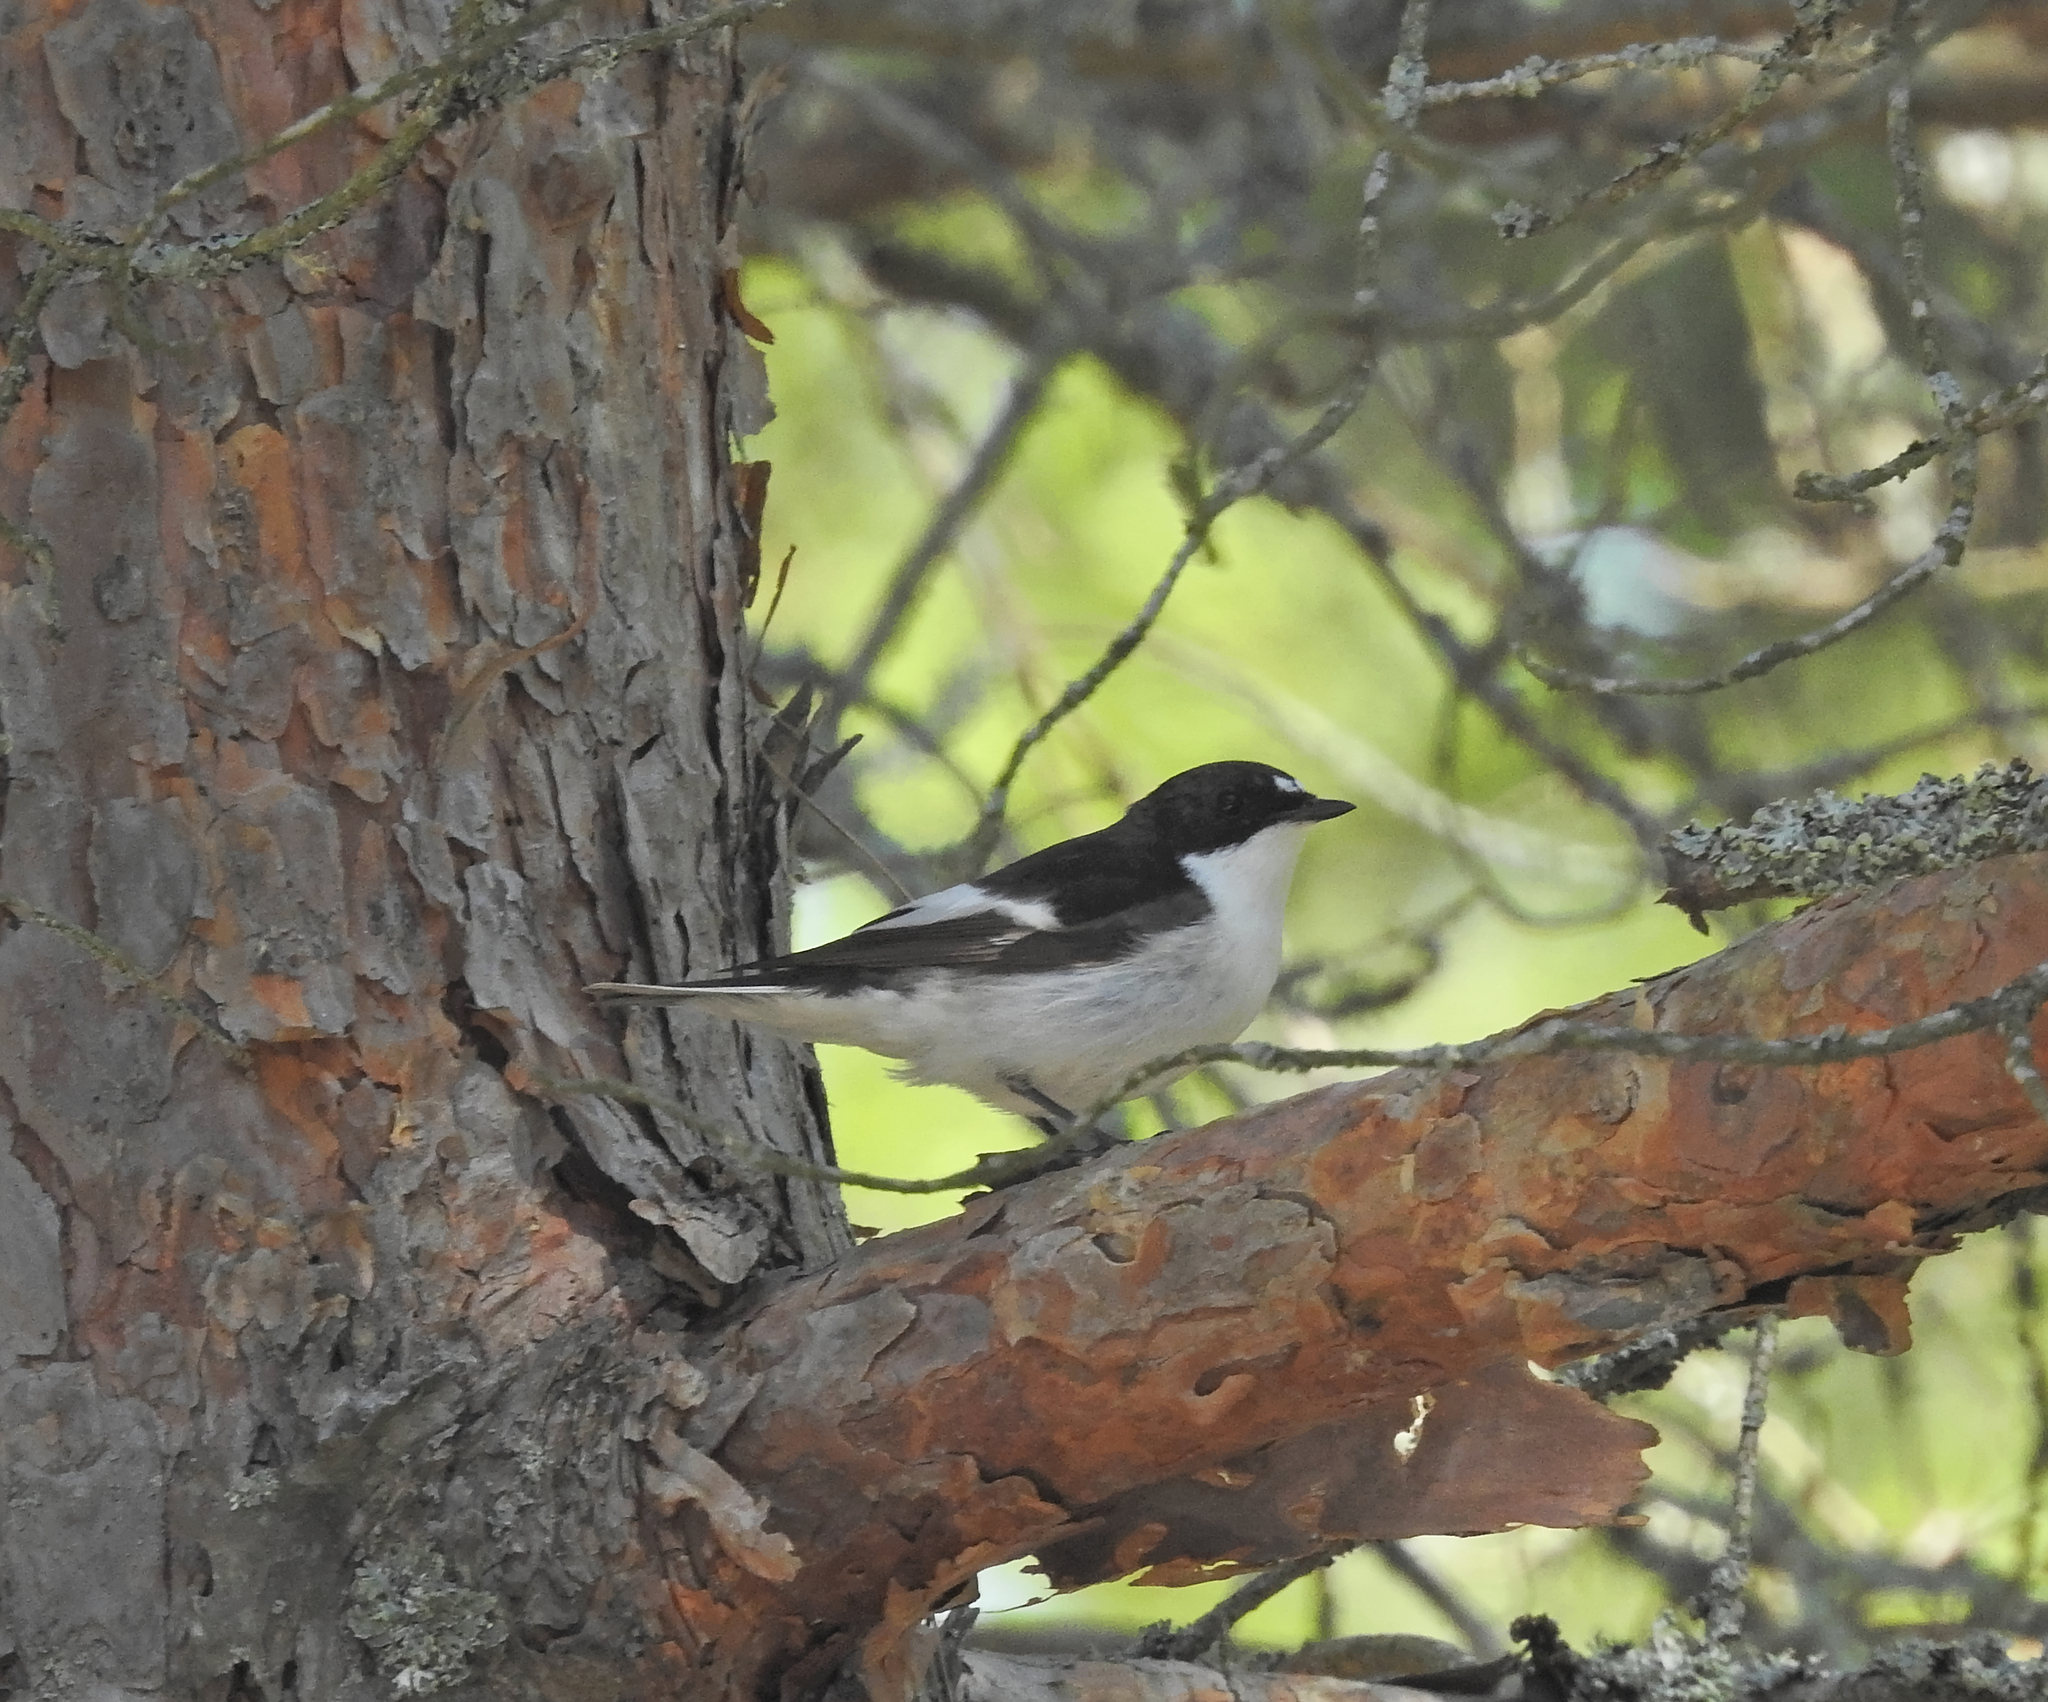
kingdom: Animalia
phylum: Chordata
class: Aves
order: Passeriformes
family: Muscicapidae
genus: Ficedula
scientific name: Ficedula hypoleuca
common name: European pied flycatcher
